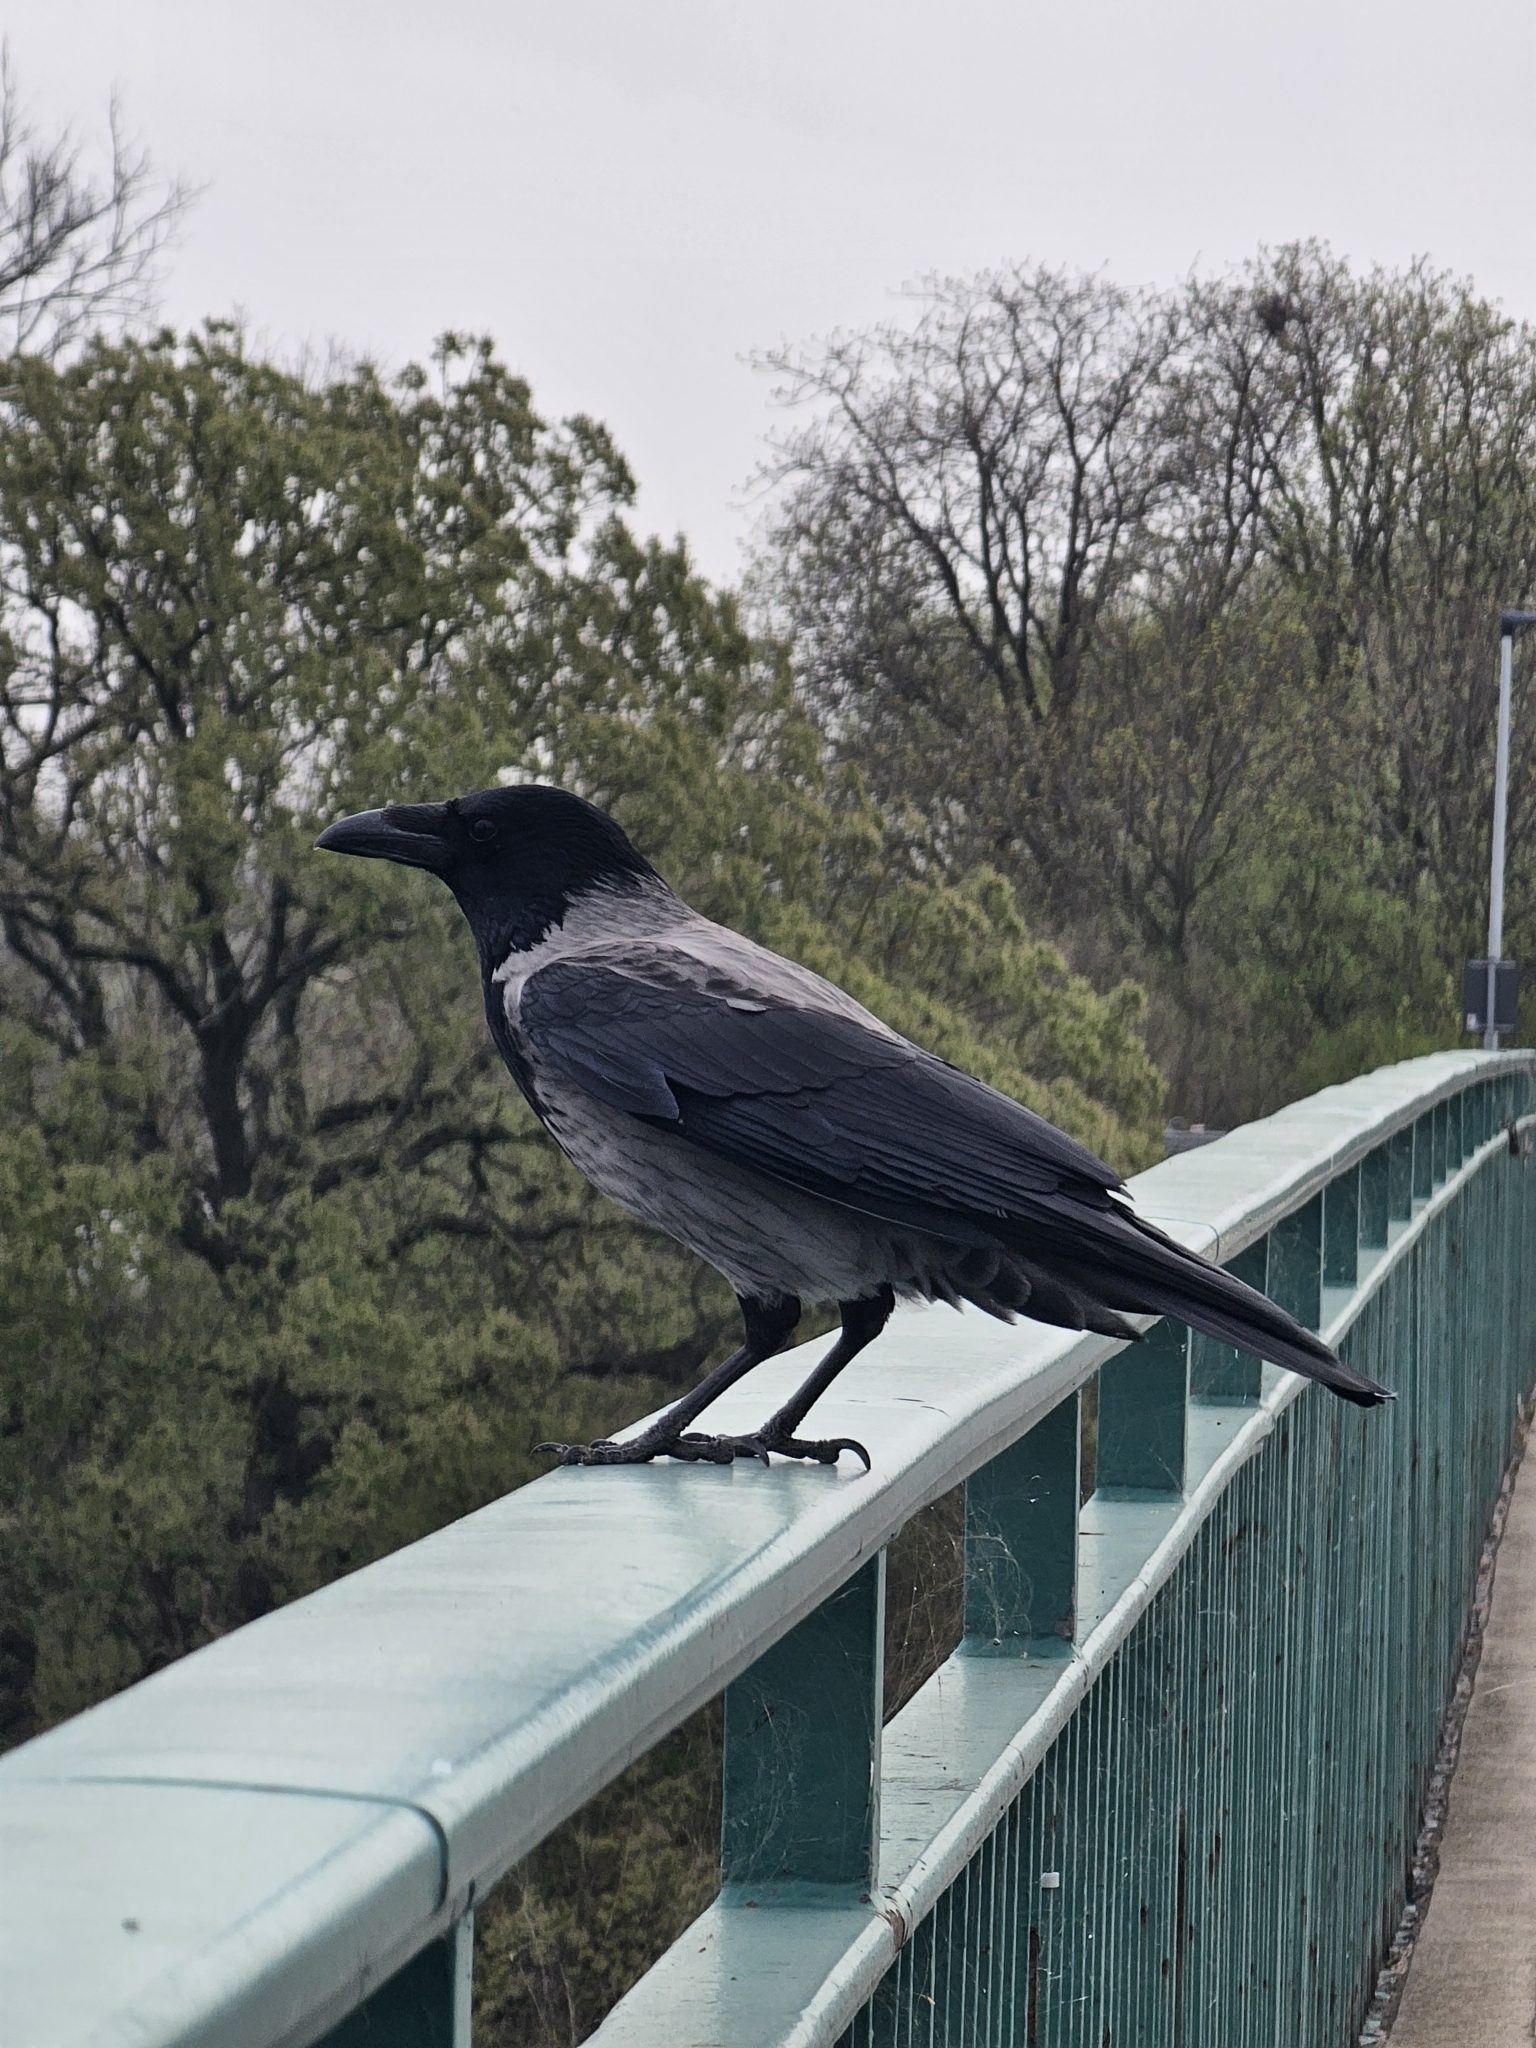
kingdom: Animalia
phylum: Chordata
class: Aves
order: Passeriformes
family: Corvidae
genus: Corvus
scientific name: Corvus
